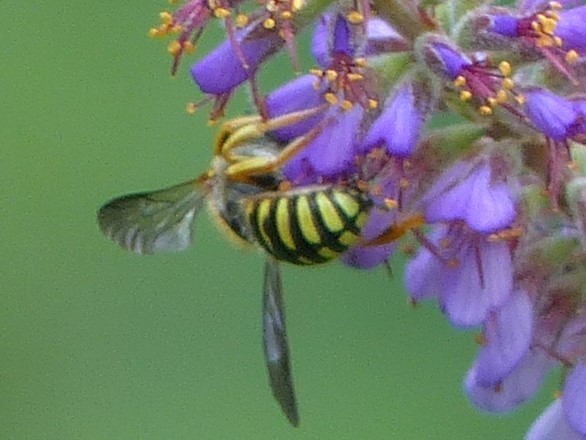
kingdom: Animalia
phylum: Arthropoda
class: Insecta
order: Hymenoptera
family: Megachilidae
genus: Anthidium
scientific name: Anthidium oblongatum
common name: Oblong wool carder bee
